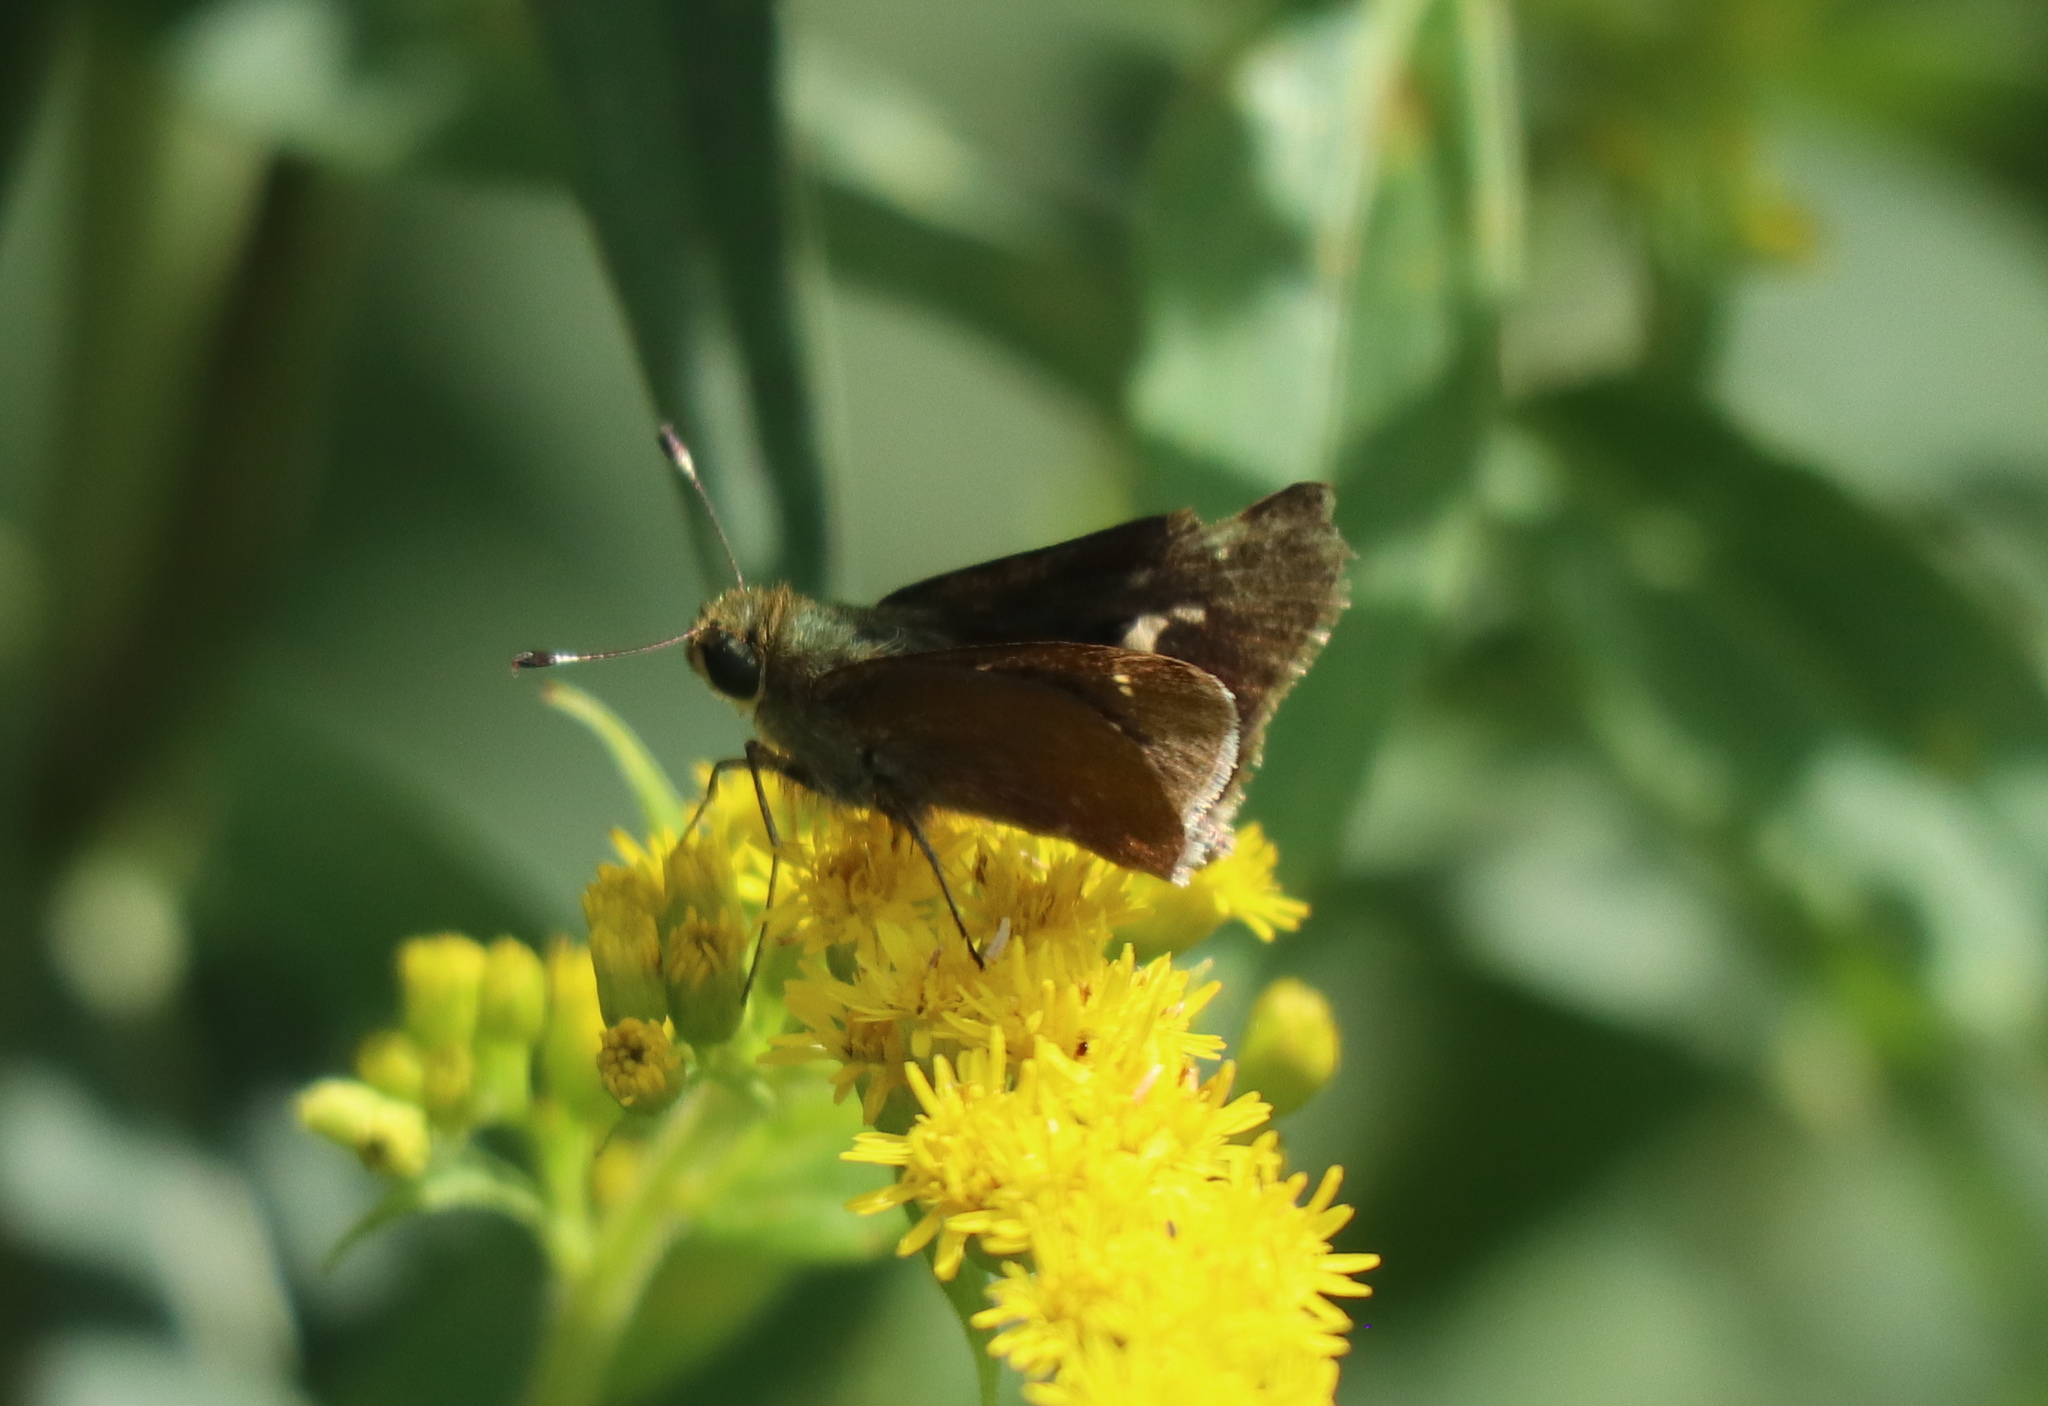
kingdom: Animalia
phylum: Arthropoda
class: Insecta
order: Lepidoptera
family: Hesperiidae
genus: Vernia
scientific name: Vernia verna
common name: Little glassywing
